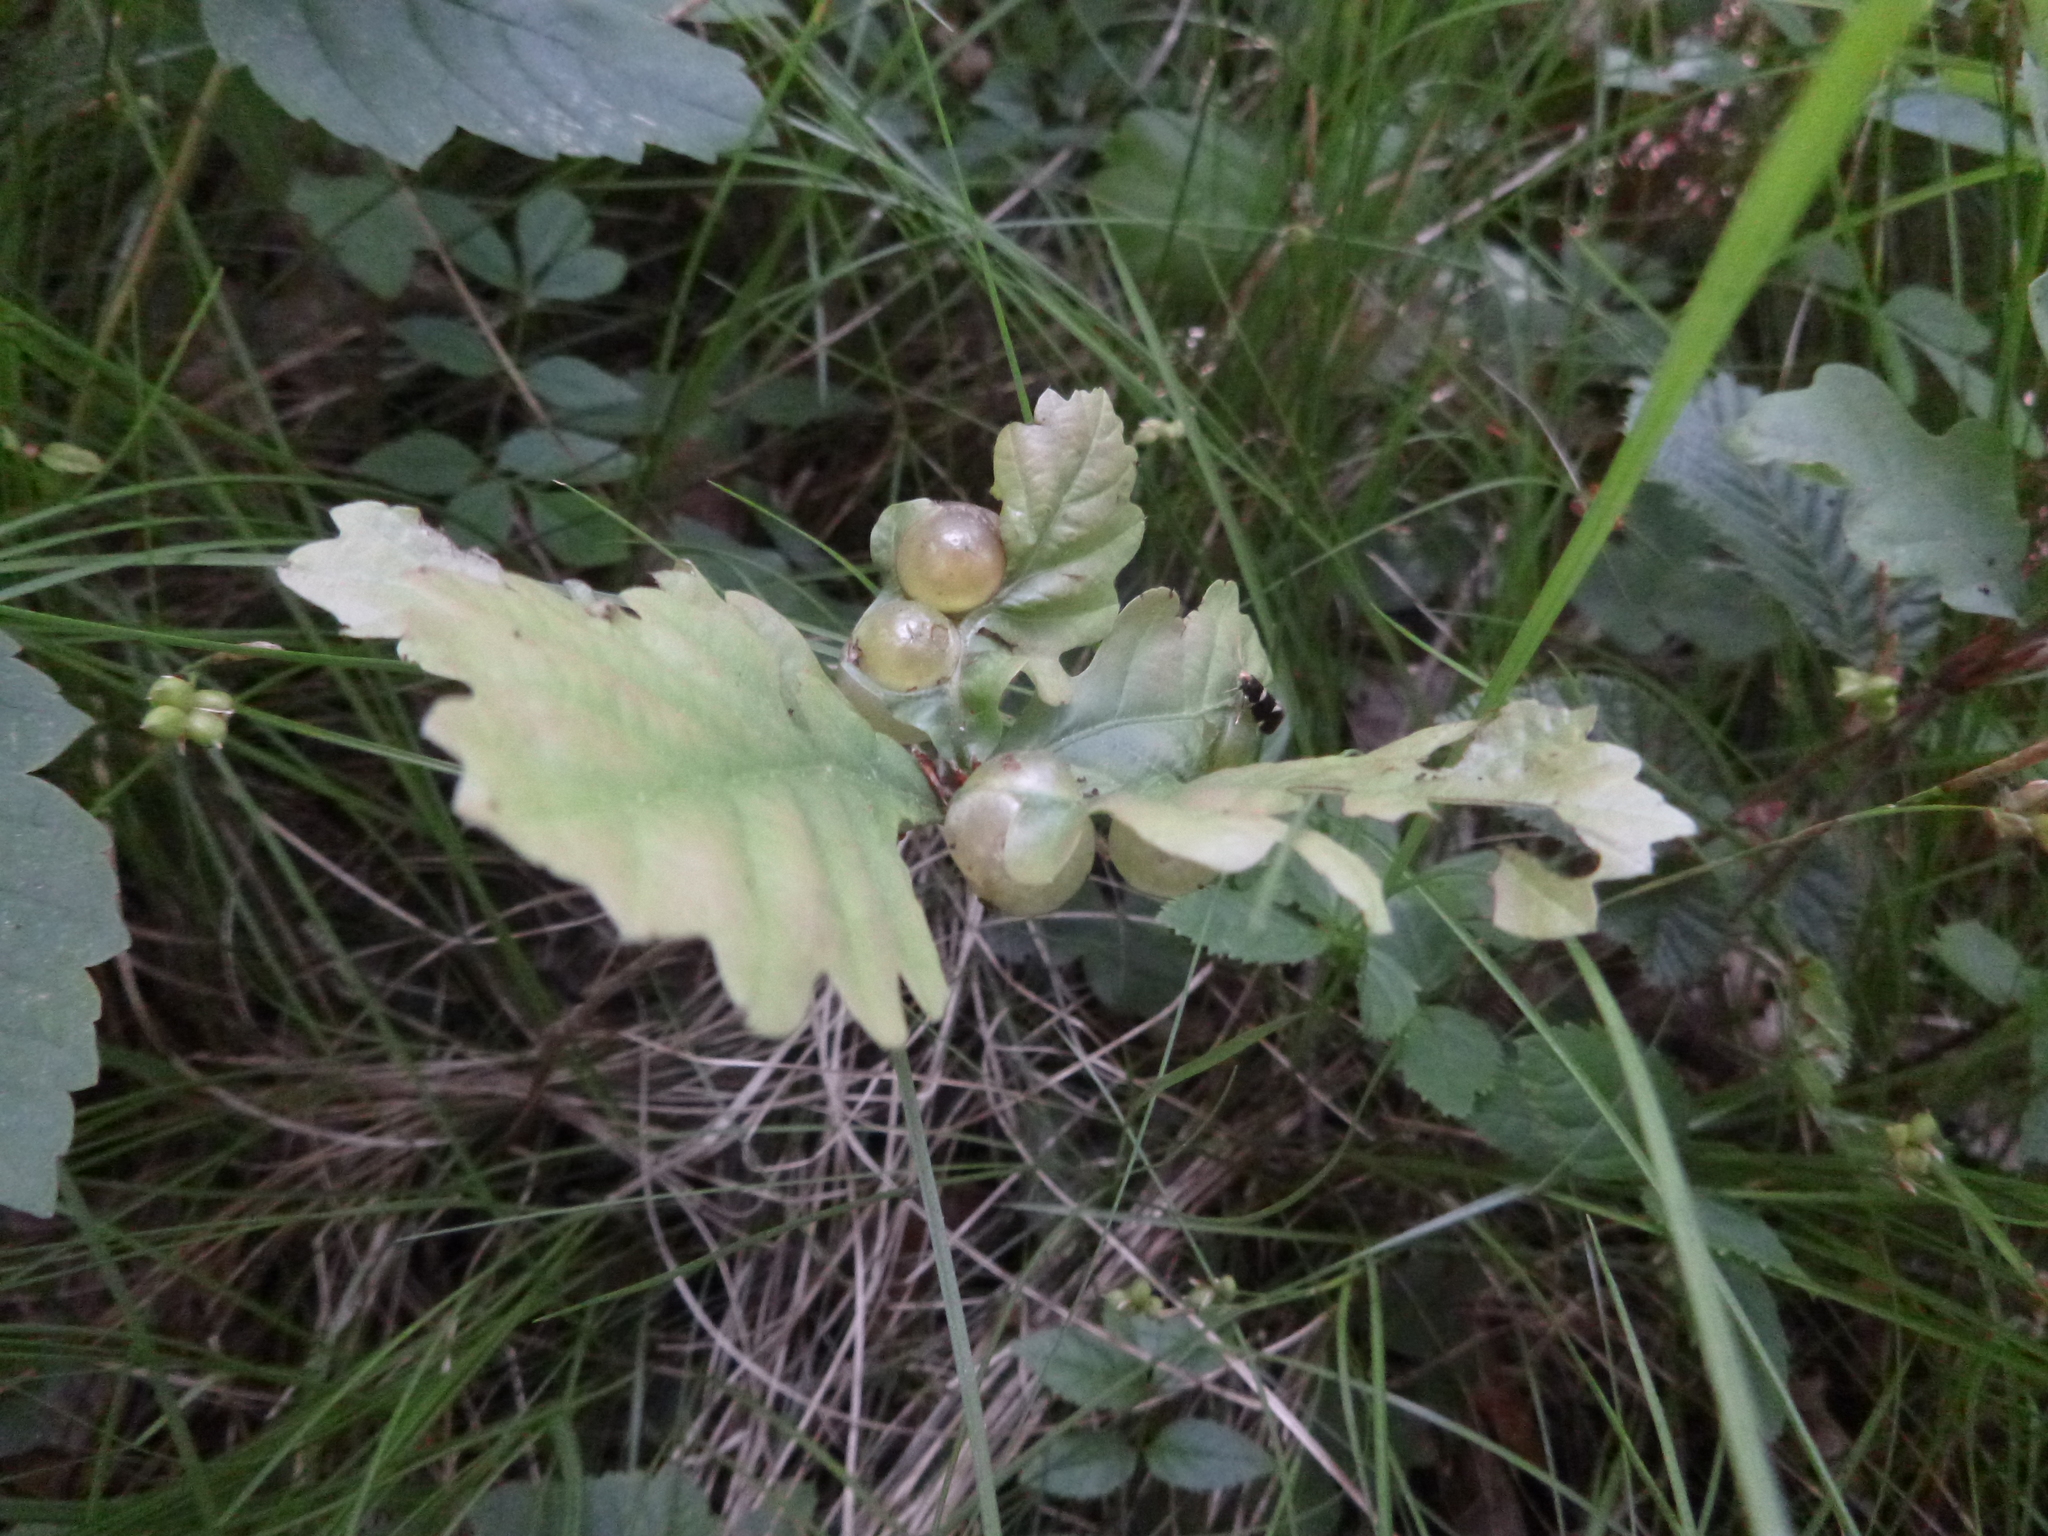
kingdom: Animalia
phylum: Arthropoda
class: Insecta
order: Hymenoptera
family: Cynipidae
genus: Neuroterus
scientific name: Neuroterus quercusbaccarum
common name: Common spangle gall
